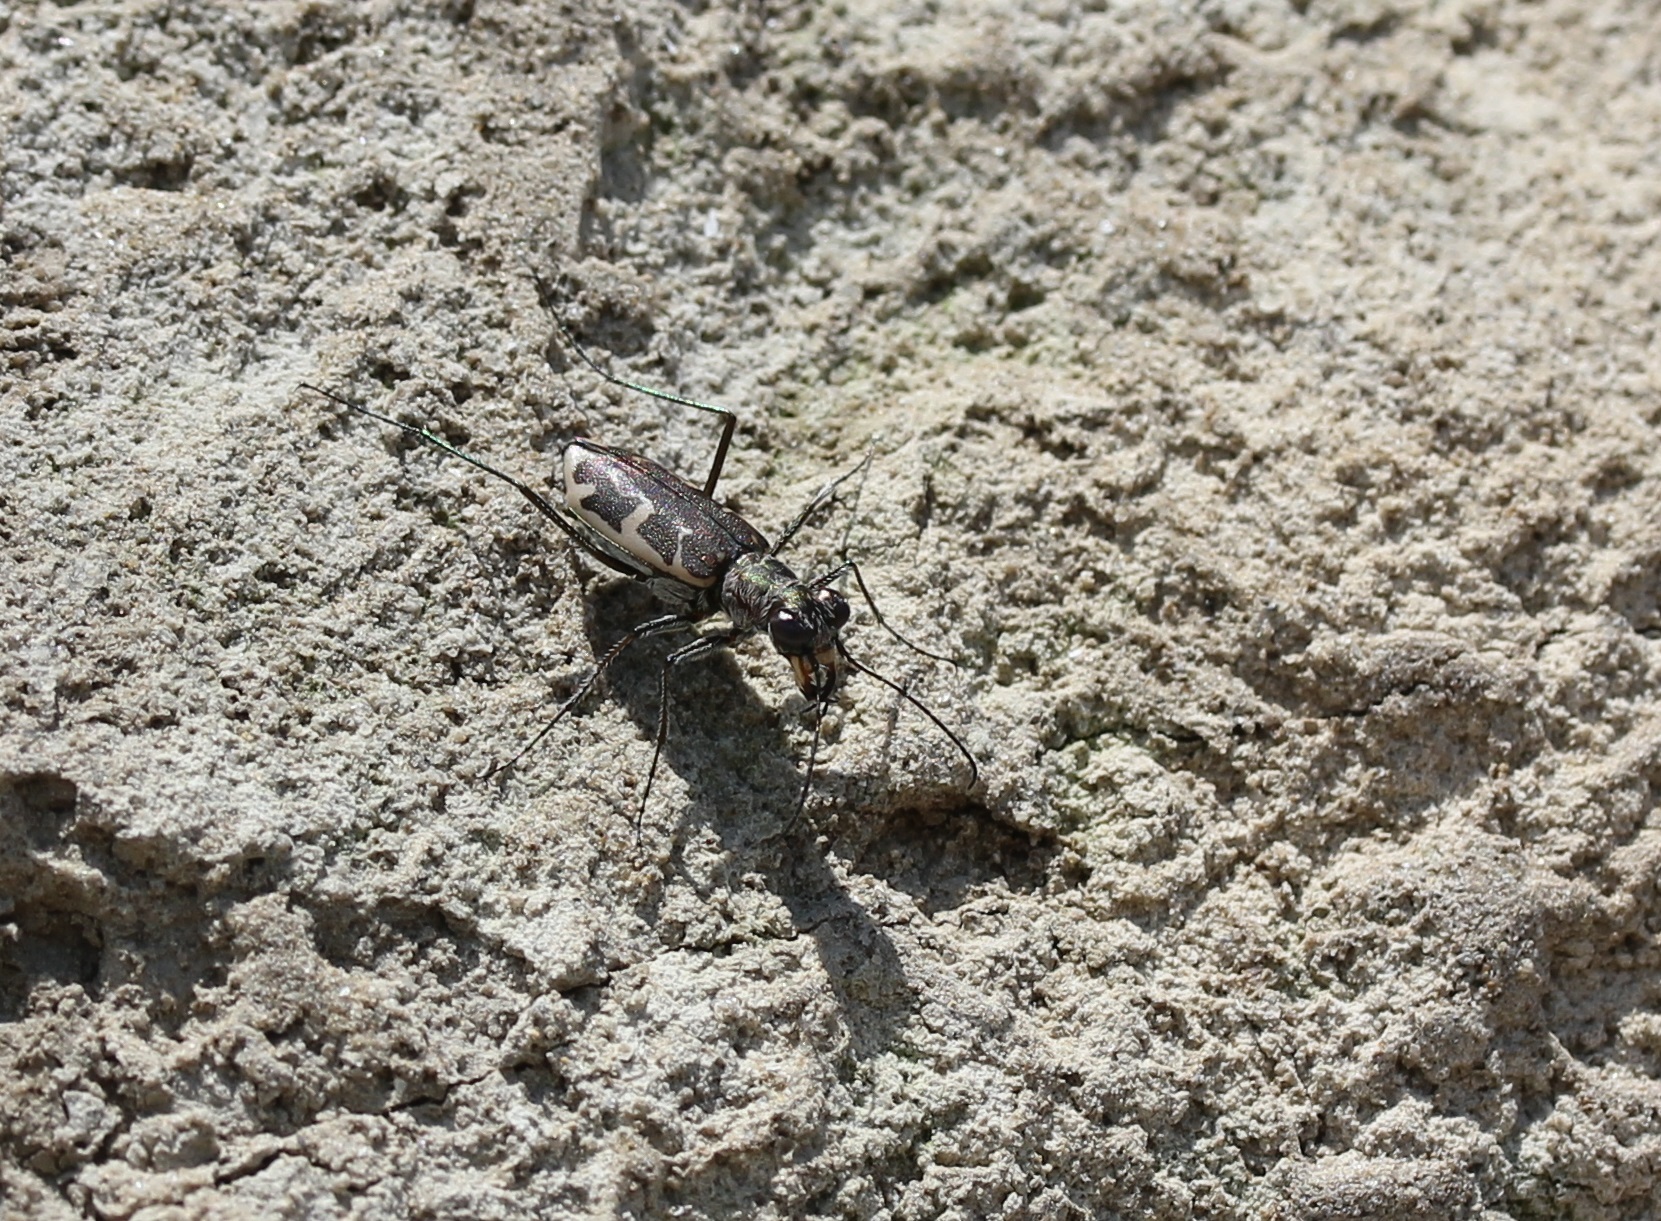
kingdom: Animalia
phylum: Arthropoda
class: Insecta
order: Coleoptera
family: Carabidae
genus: Ellipsoptera
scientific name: Ellipsoptera puritana
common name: Puritan tiger beetle
